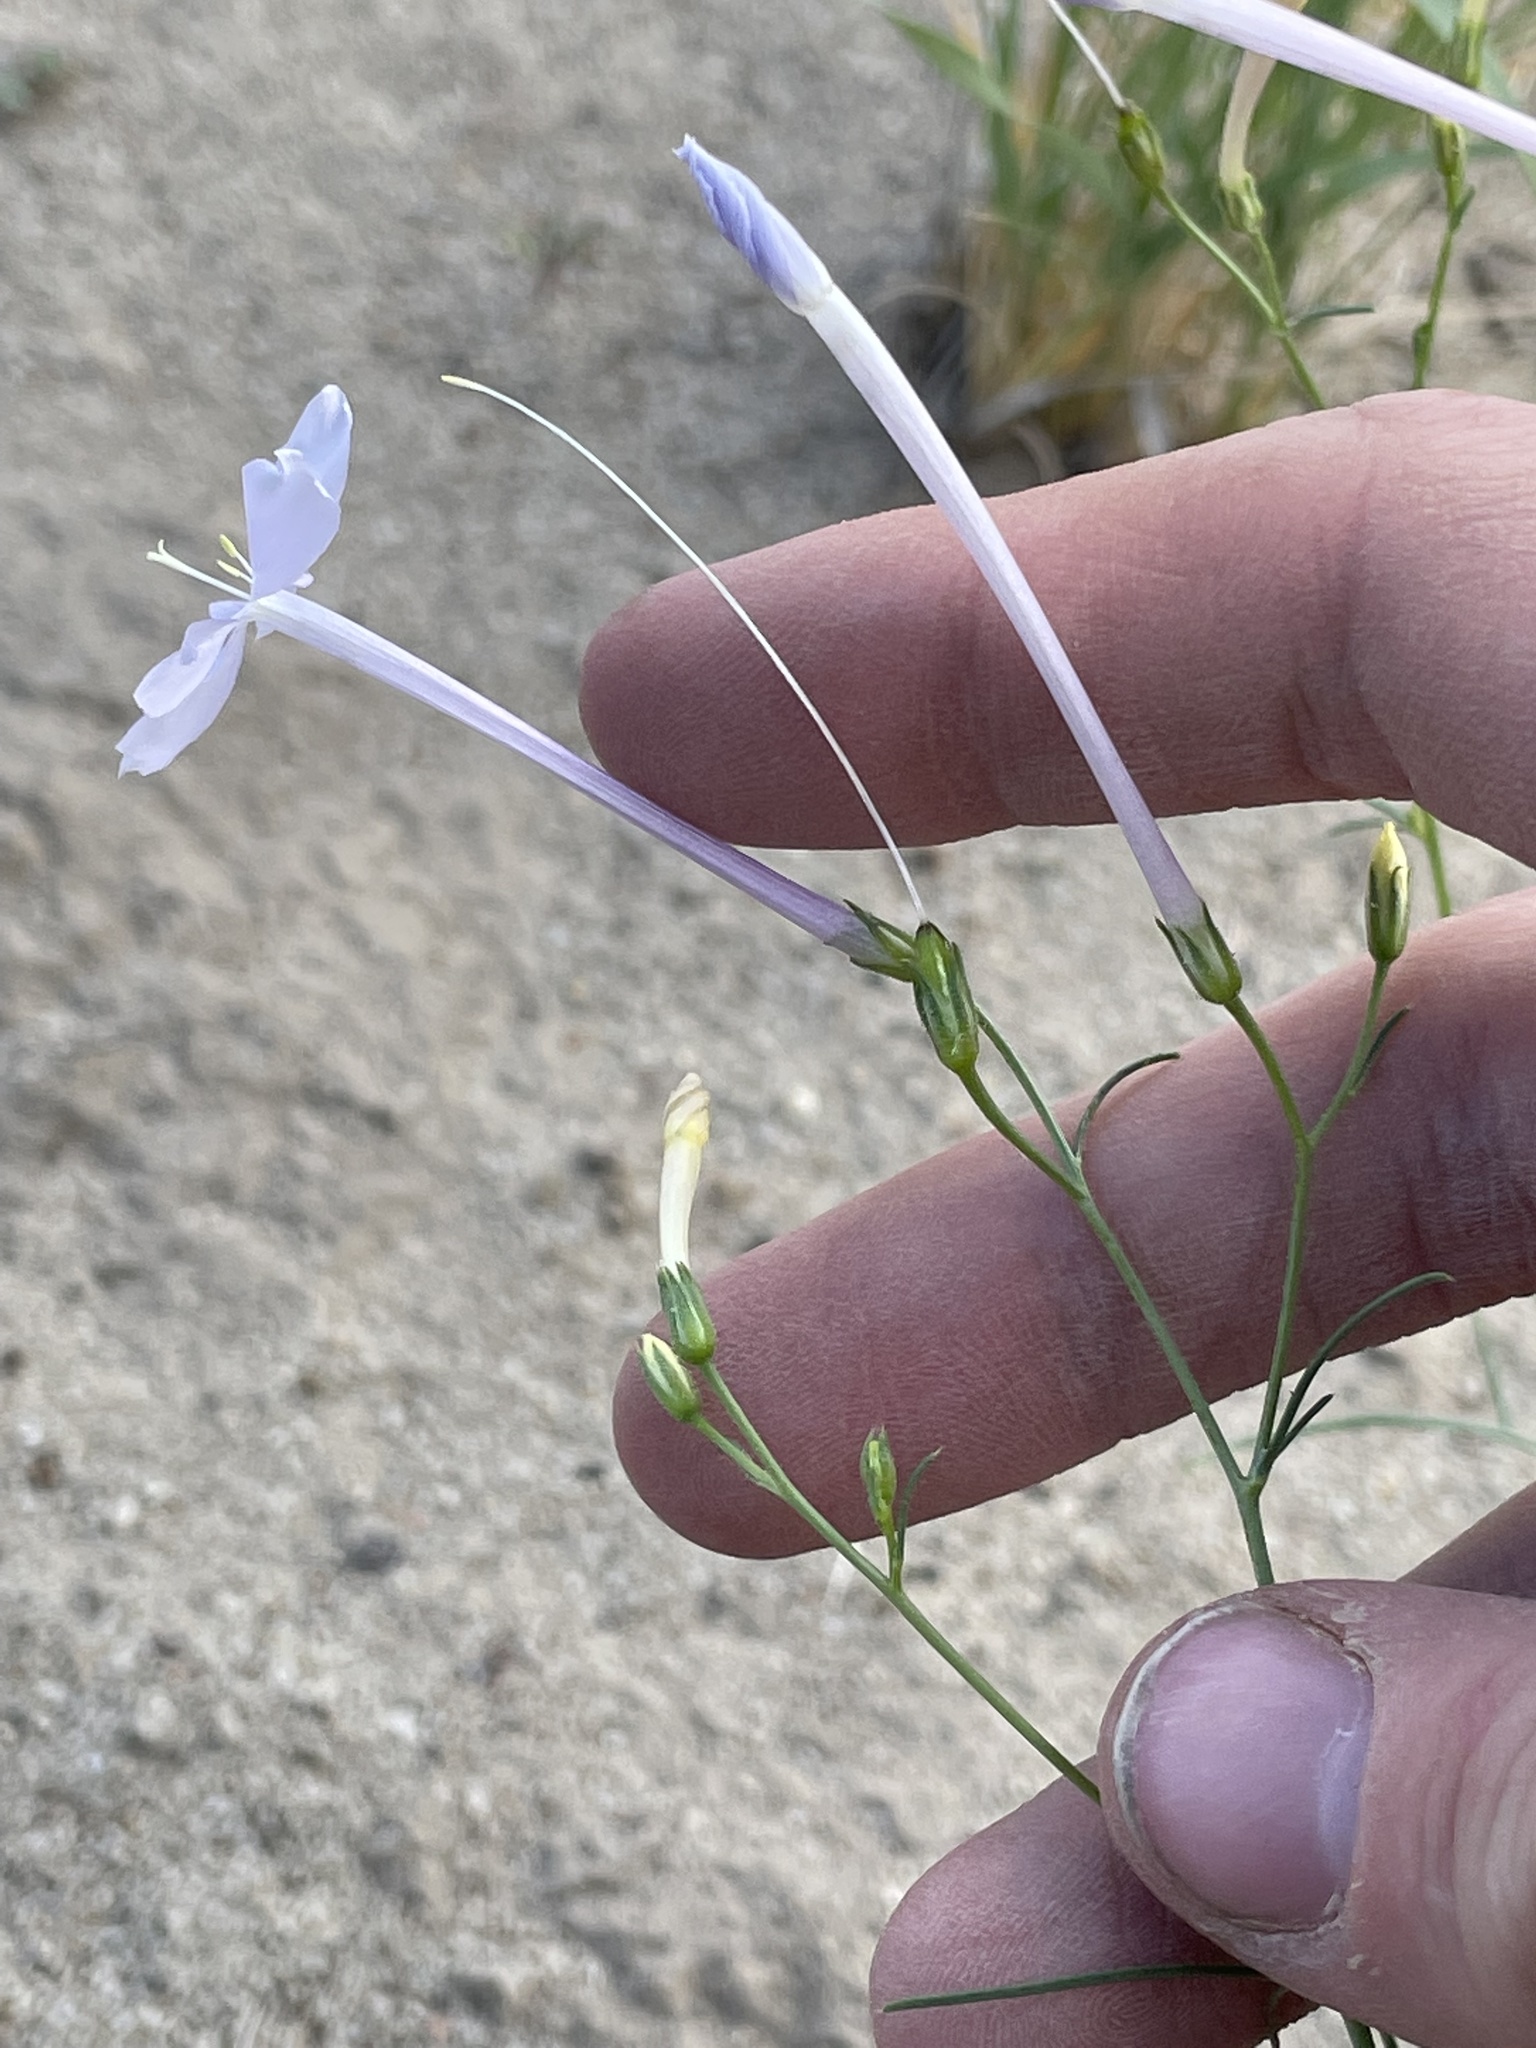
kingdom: Plantae
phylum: Tracheophyta
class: Magnoliopsida
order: Ericales
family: Polemoniaceae
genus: Ipomopsis
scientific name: Ipomopsis longiflora
